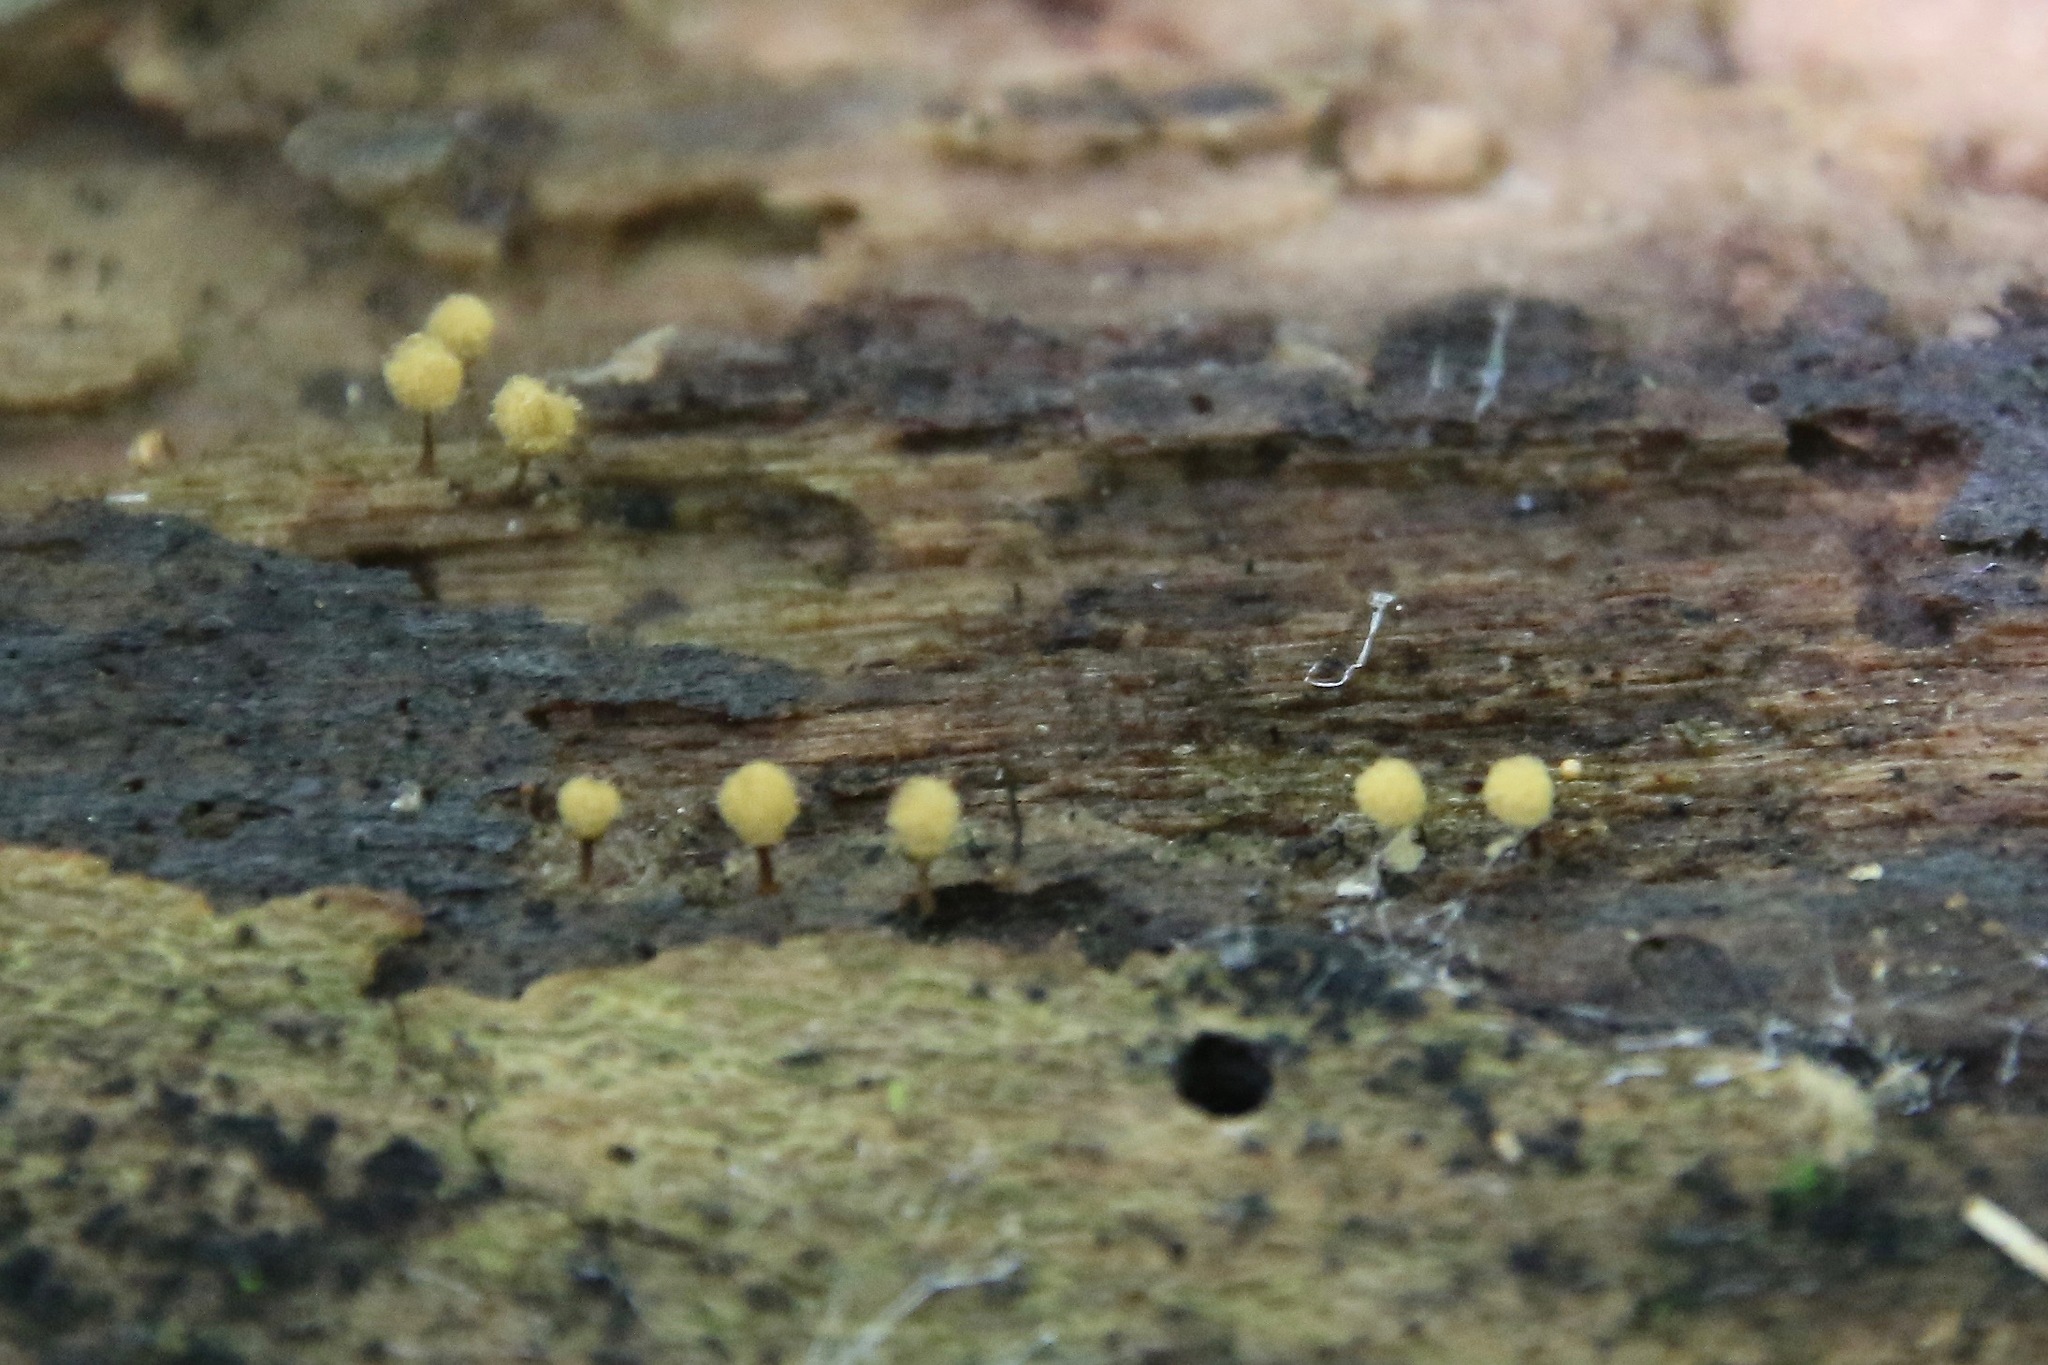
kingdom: Protozoa
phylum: Mycetozoa
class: Myxomycetes
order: Trichiales
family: Arcyriaceae
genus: Hemitrichia
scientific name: Hemitrichia calyculata
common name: Push pin slime mold
